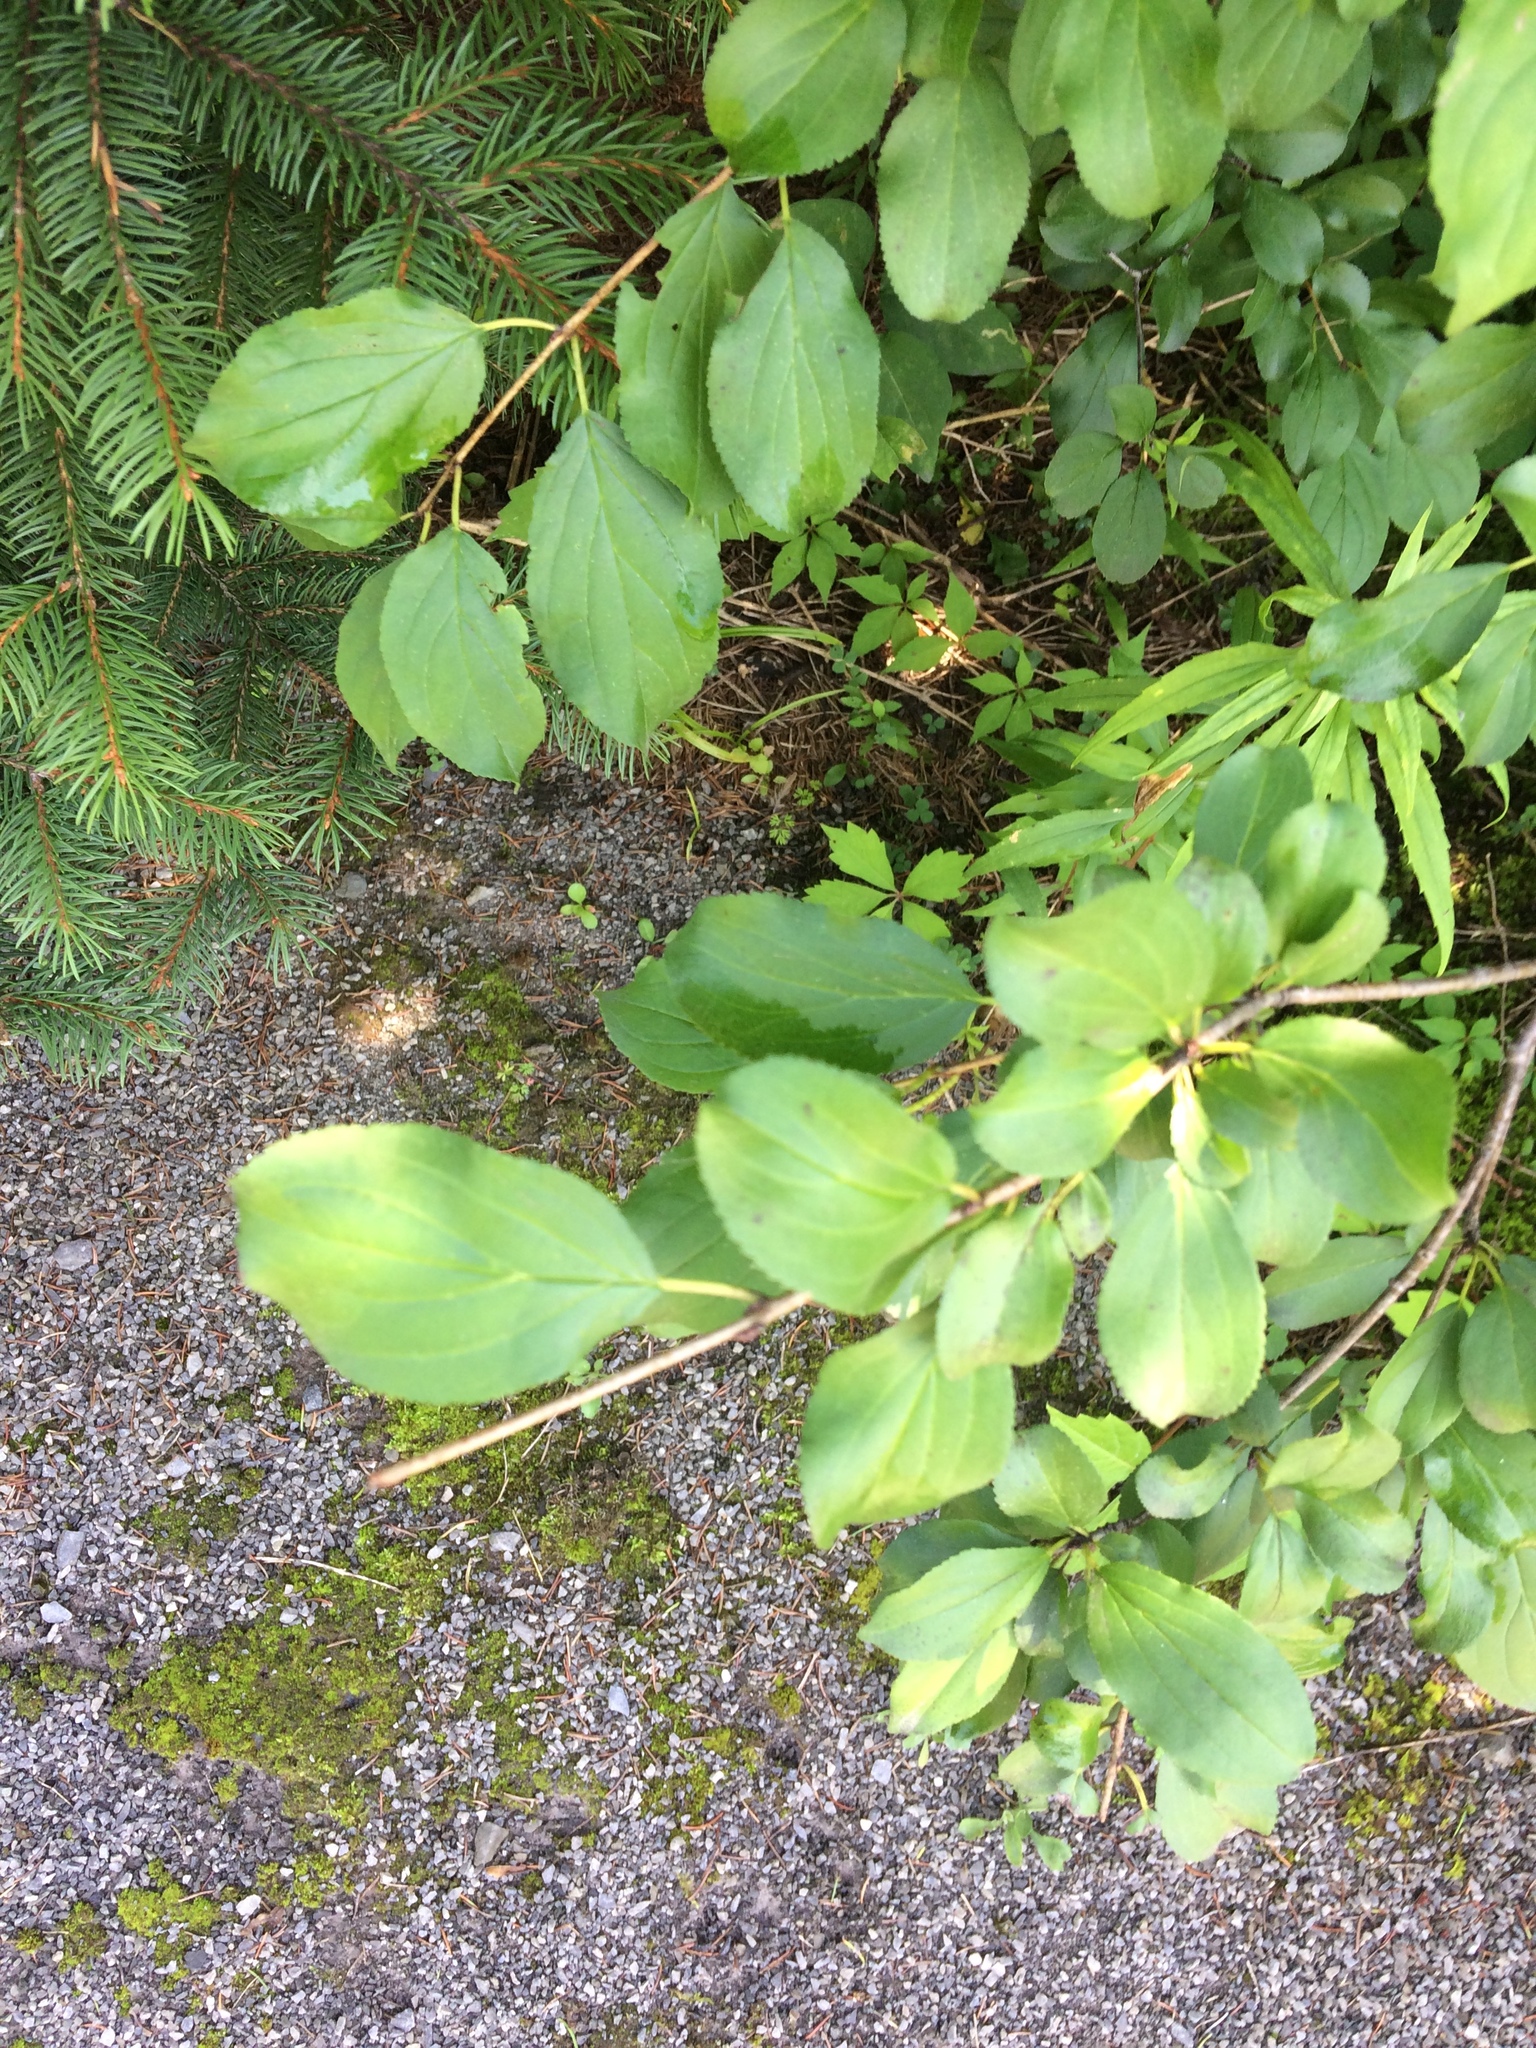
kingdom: Plantae
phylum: Tracheophyta
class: Magnoliopsida
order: Rosales
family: Rhamnaceae
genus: Rhamnus
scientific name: Rhamnus cathartica
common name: Common buckthorn
